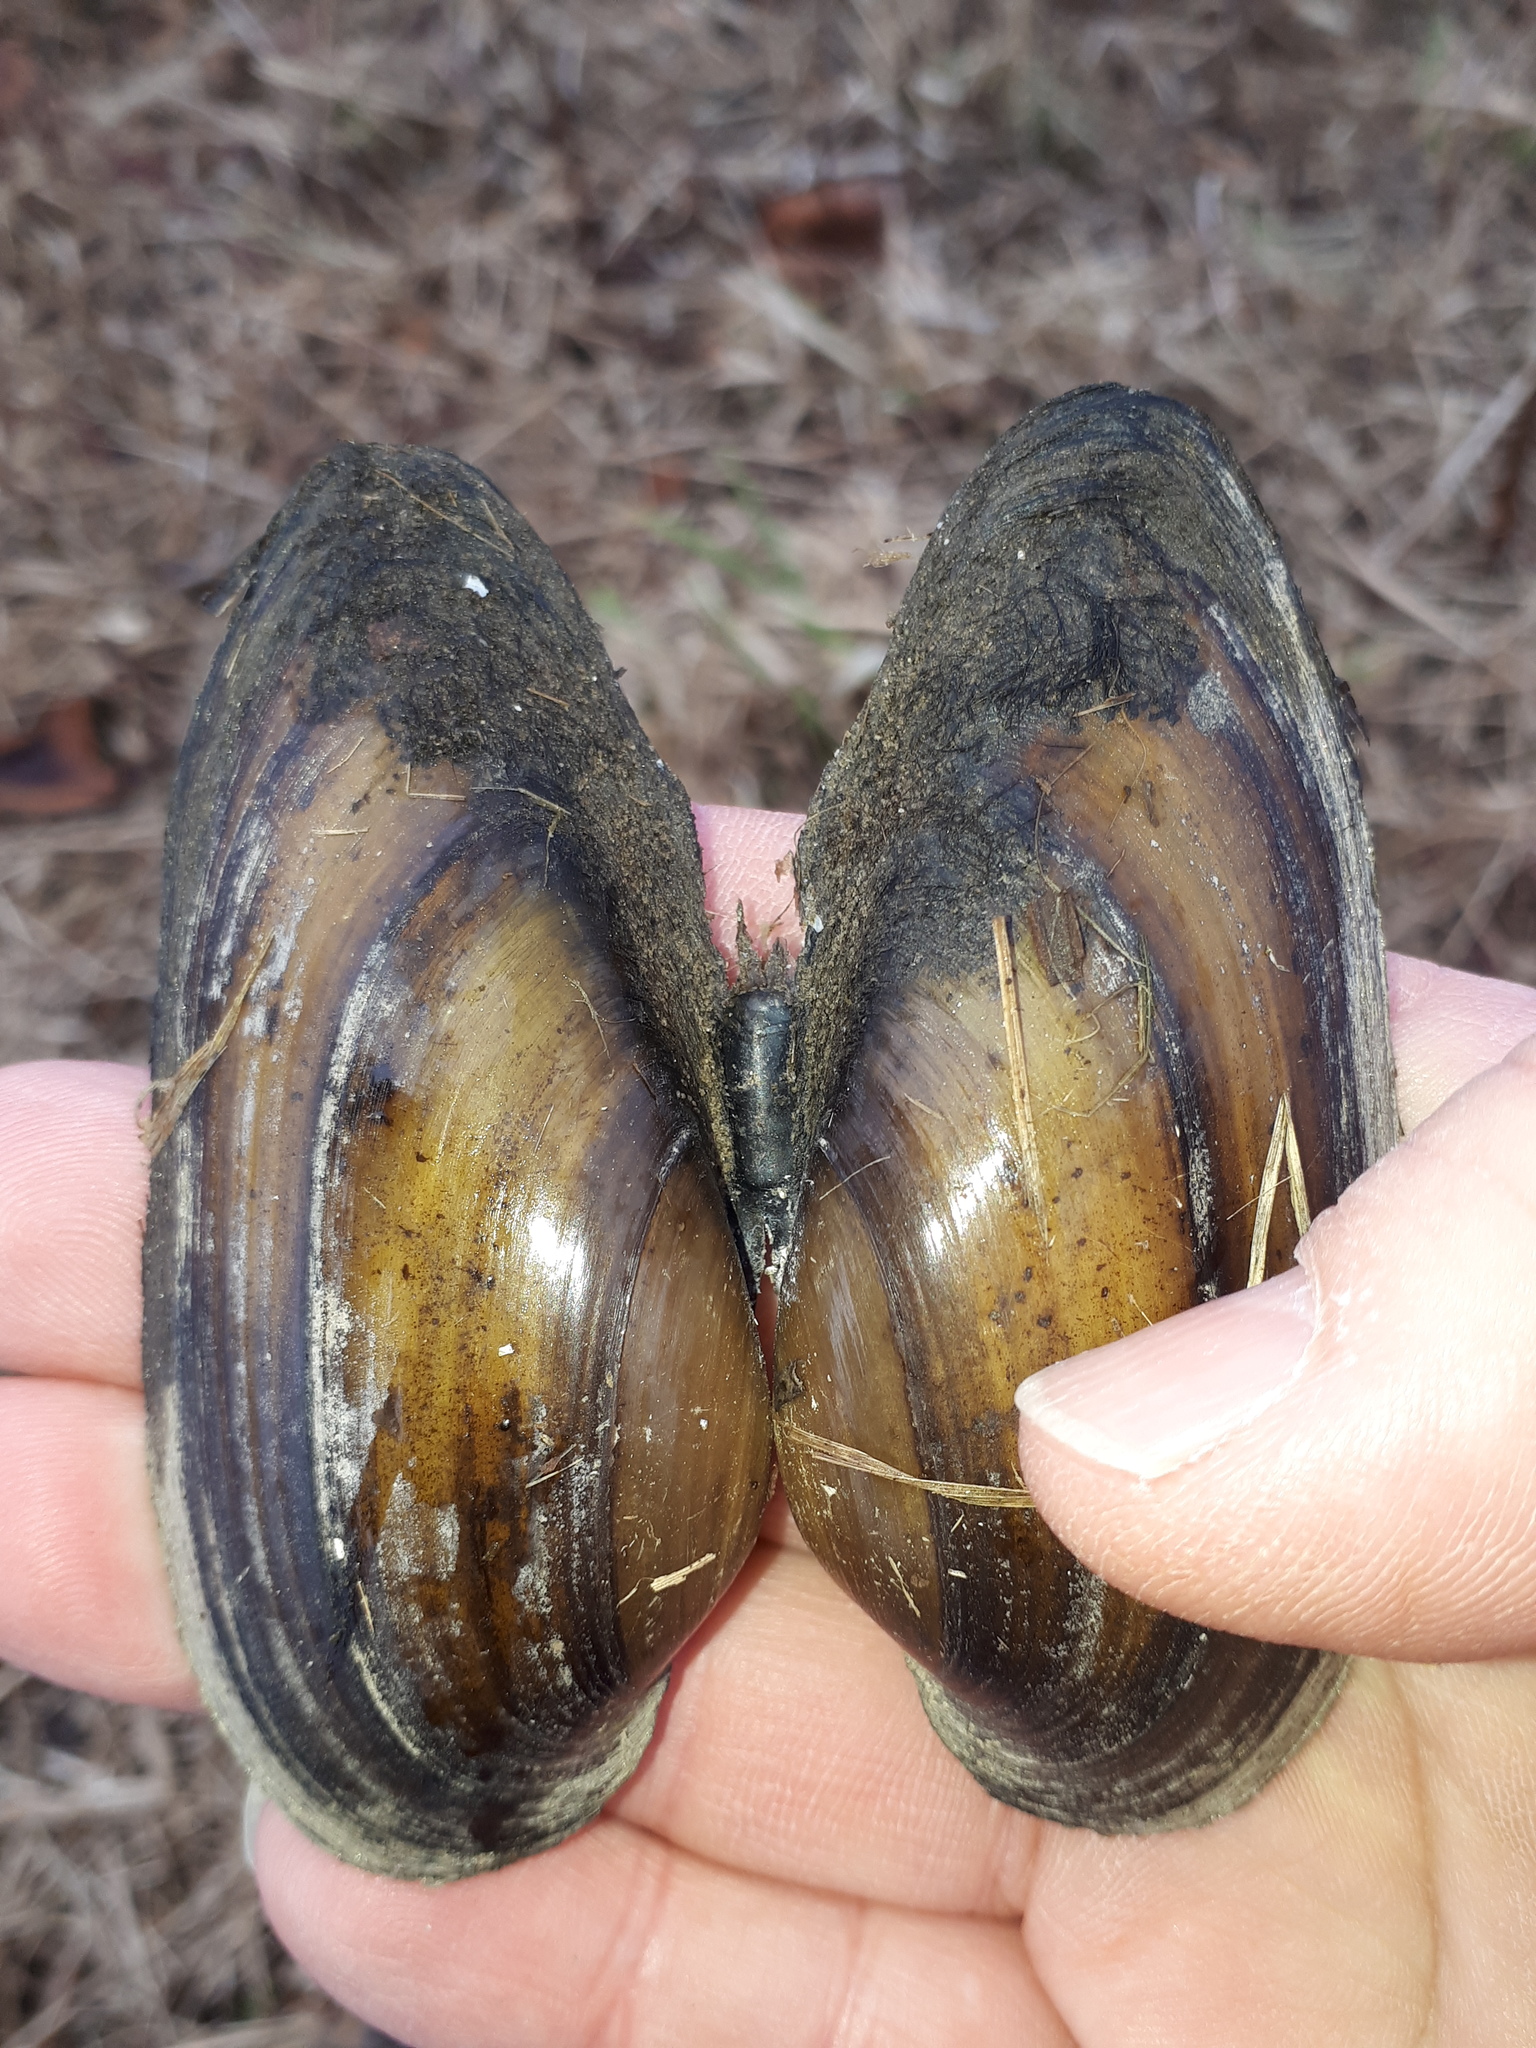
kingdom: Animalia
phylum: Mollusca
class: Bivalvia
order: Unionida
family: Unionidae
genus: Unio
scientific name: Unio pictorum
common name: Painter's mussel
